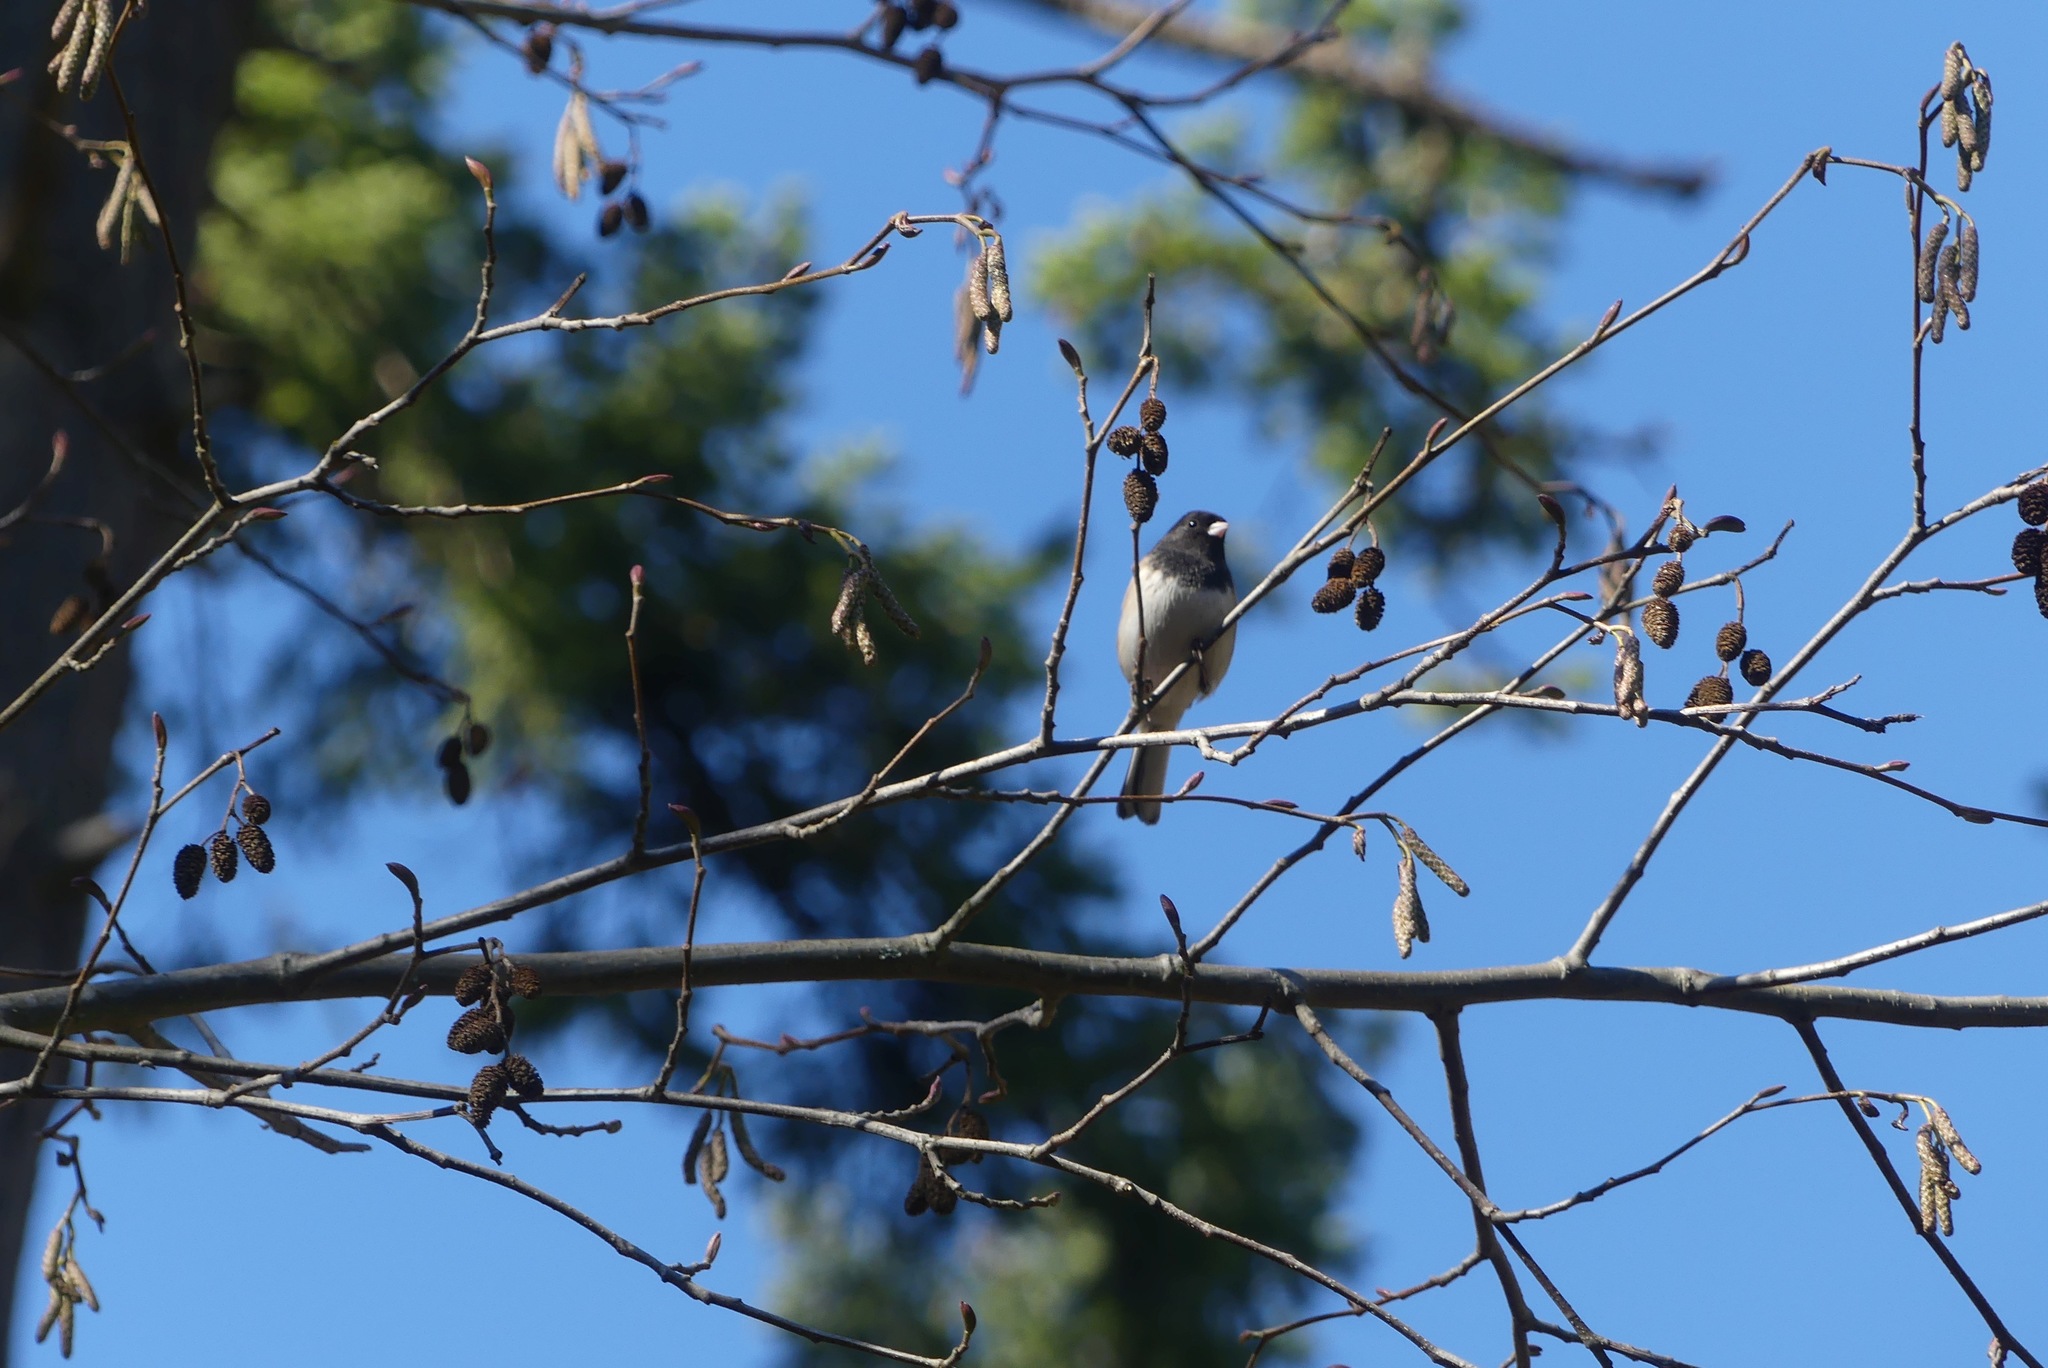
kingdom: Animalia
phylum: Chordata
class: Aves
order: Passeriformes
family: Passerellidae
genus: Junco
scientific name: Junco hyemalis
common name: Dark-eyed junco
